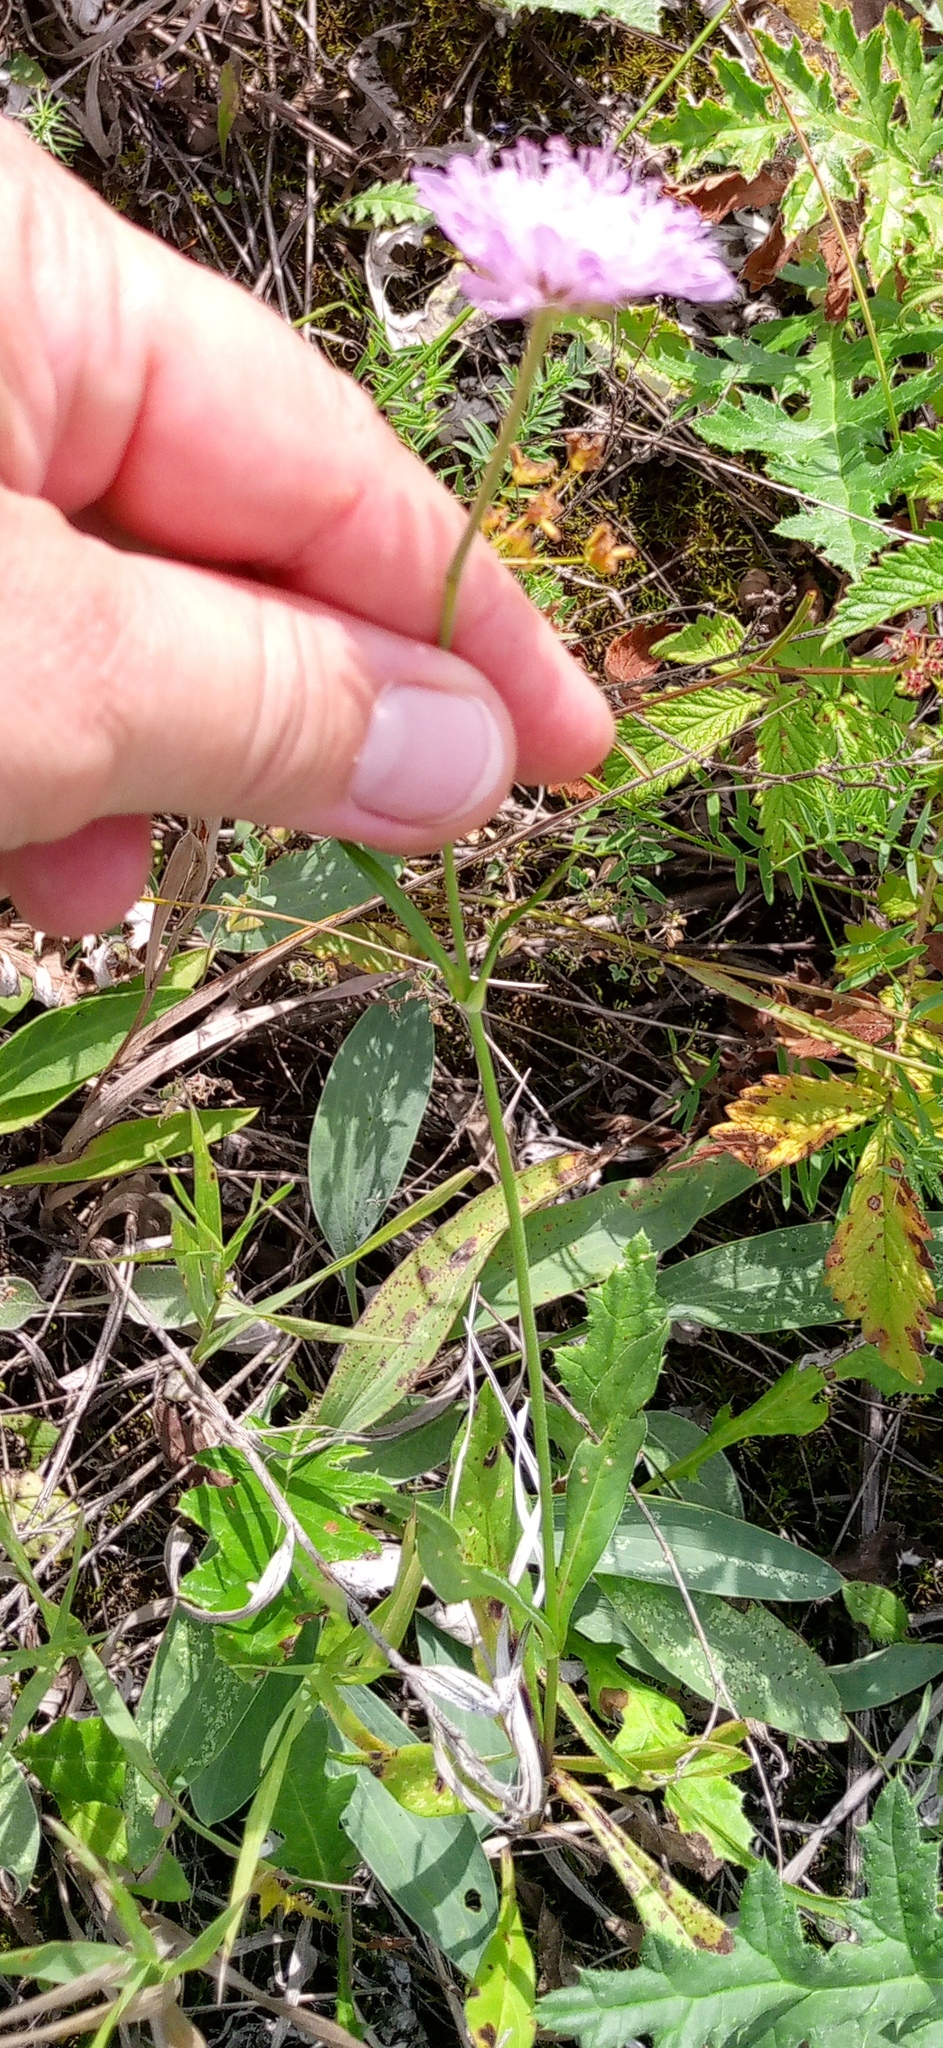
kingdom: Plantae
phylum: Tracheophyta
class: Magnoliopsida
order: Dipsacales
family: Caprifoliaceae
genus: Knautia
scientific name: Knautia arvensis
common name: Field scabiosa
